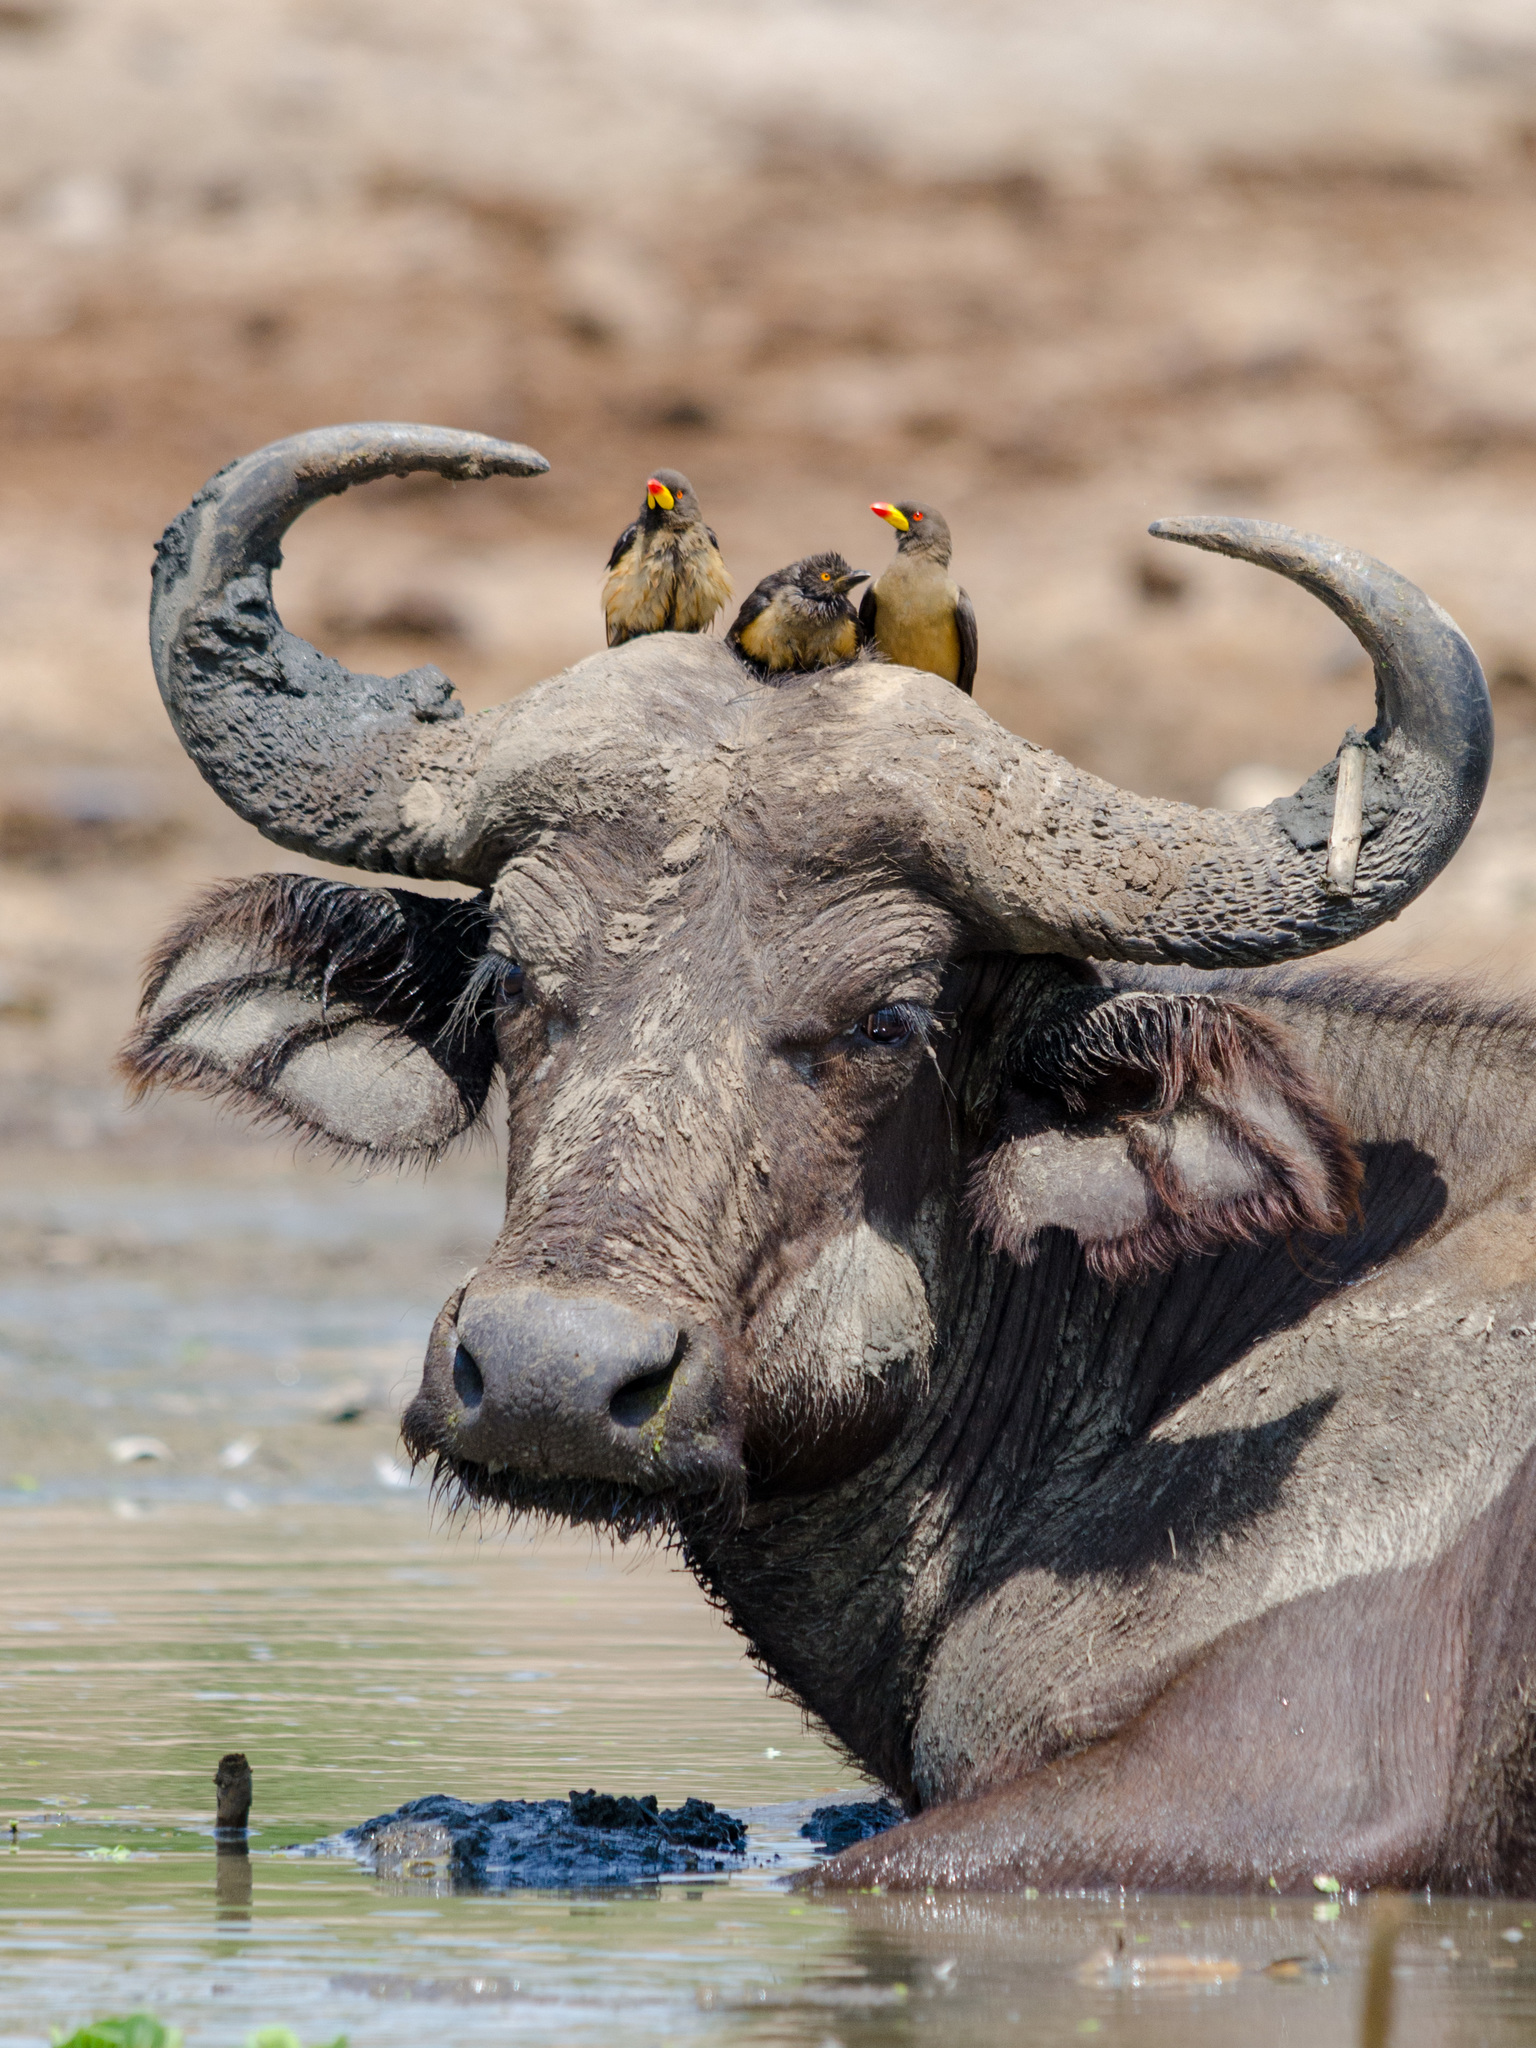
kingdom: Animalia
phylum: Chordata
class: Aves
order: Passeriformes
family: Buphagidae
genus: Buphagus
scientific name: Buphagus africanus
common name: Yellow-billed oxpecker
